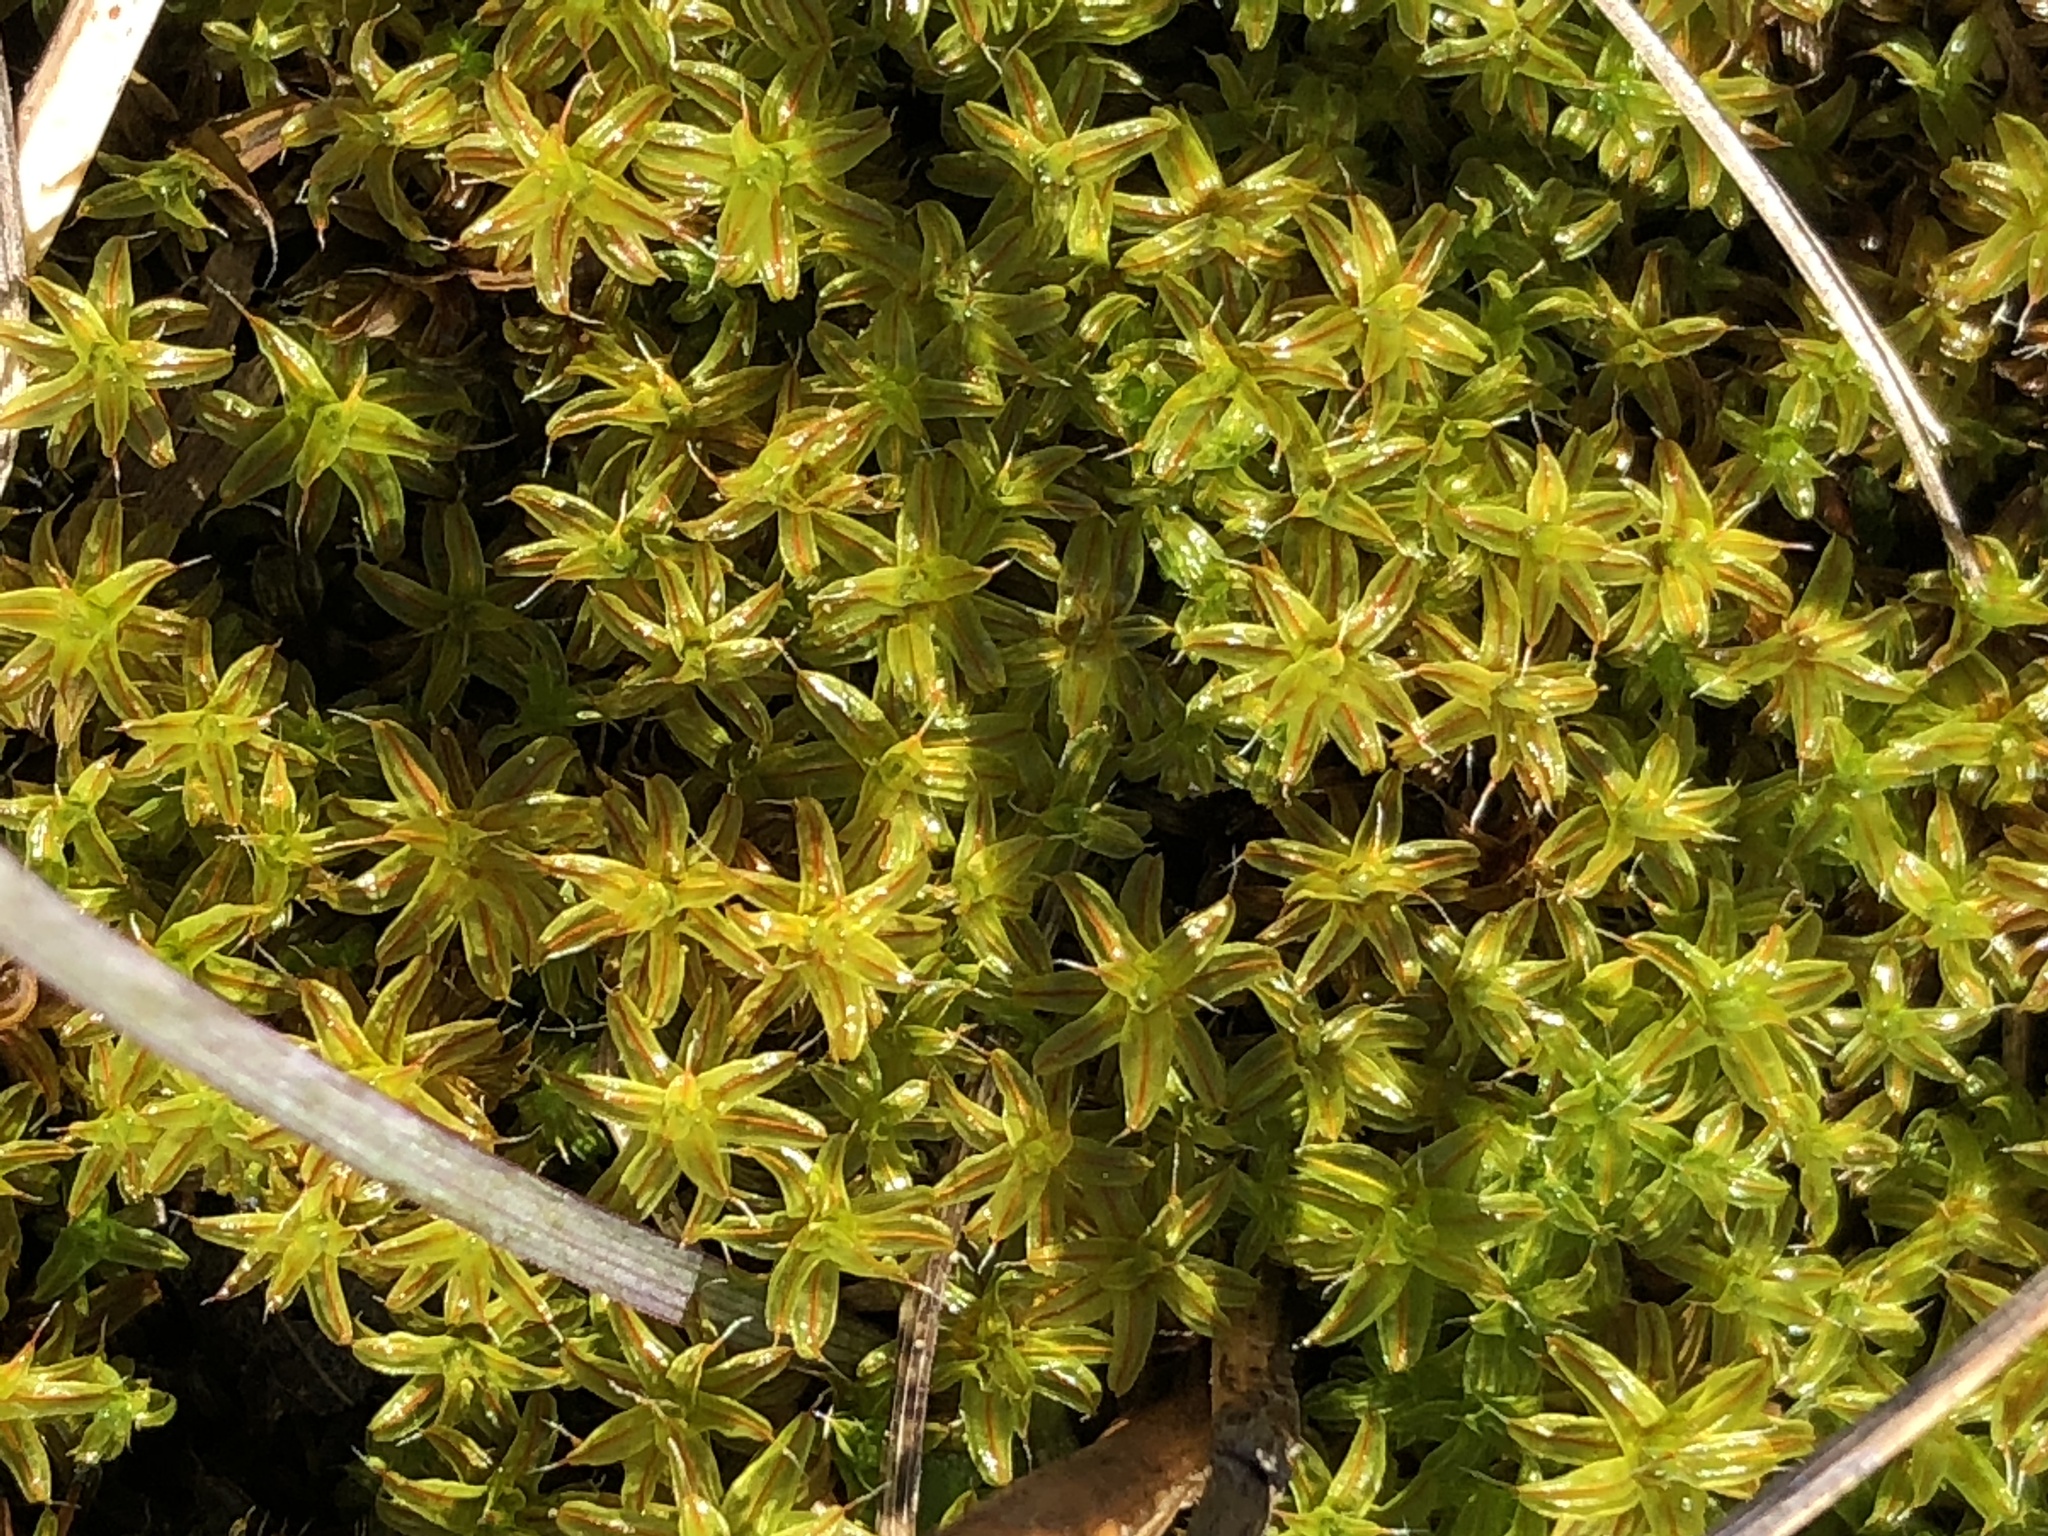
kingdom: Plantae
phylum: Bryophyta
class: Bryopsida
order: Pottiales
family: Pottiaceae
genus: Syntrichia
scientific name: Syntrichia ruralis
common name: Sidewalk screw moss
